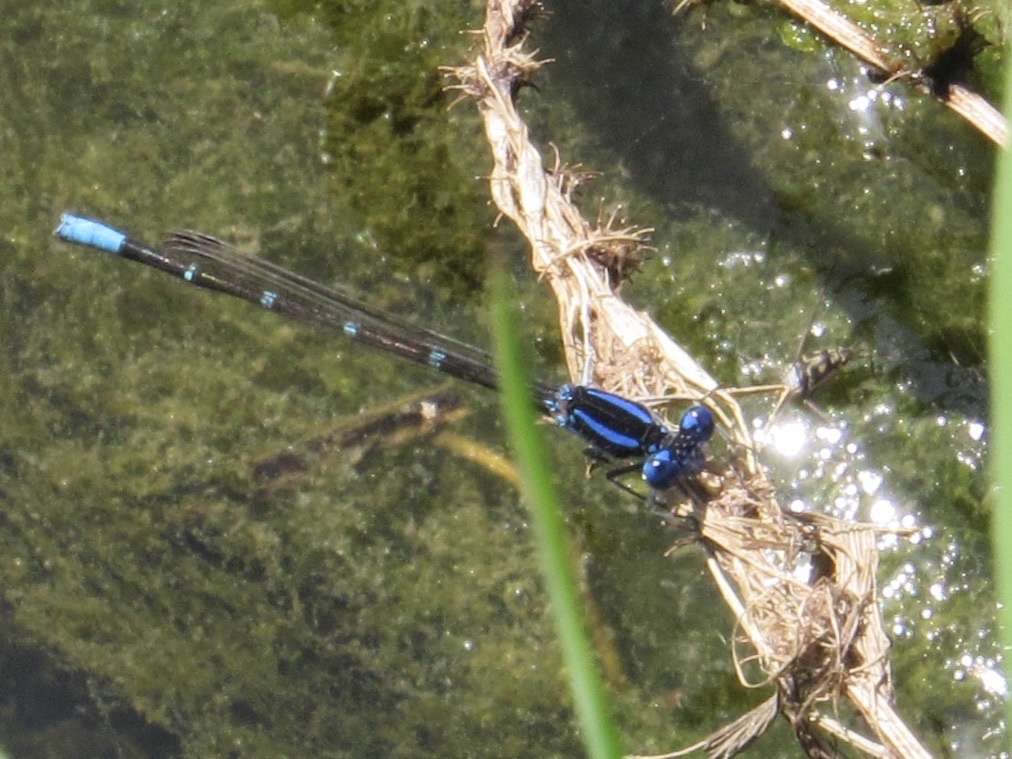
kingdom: Animalia
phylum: Arthropoda
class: Insecta
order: Odonata
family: Coenagrionidae
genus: Argia
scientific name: Argia sedula
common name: Blue-ringed dancer
